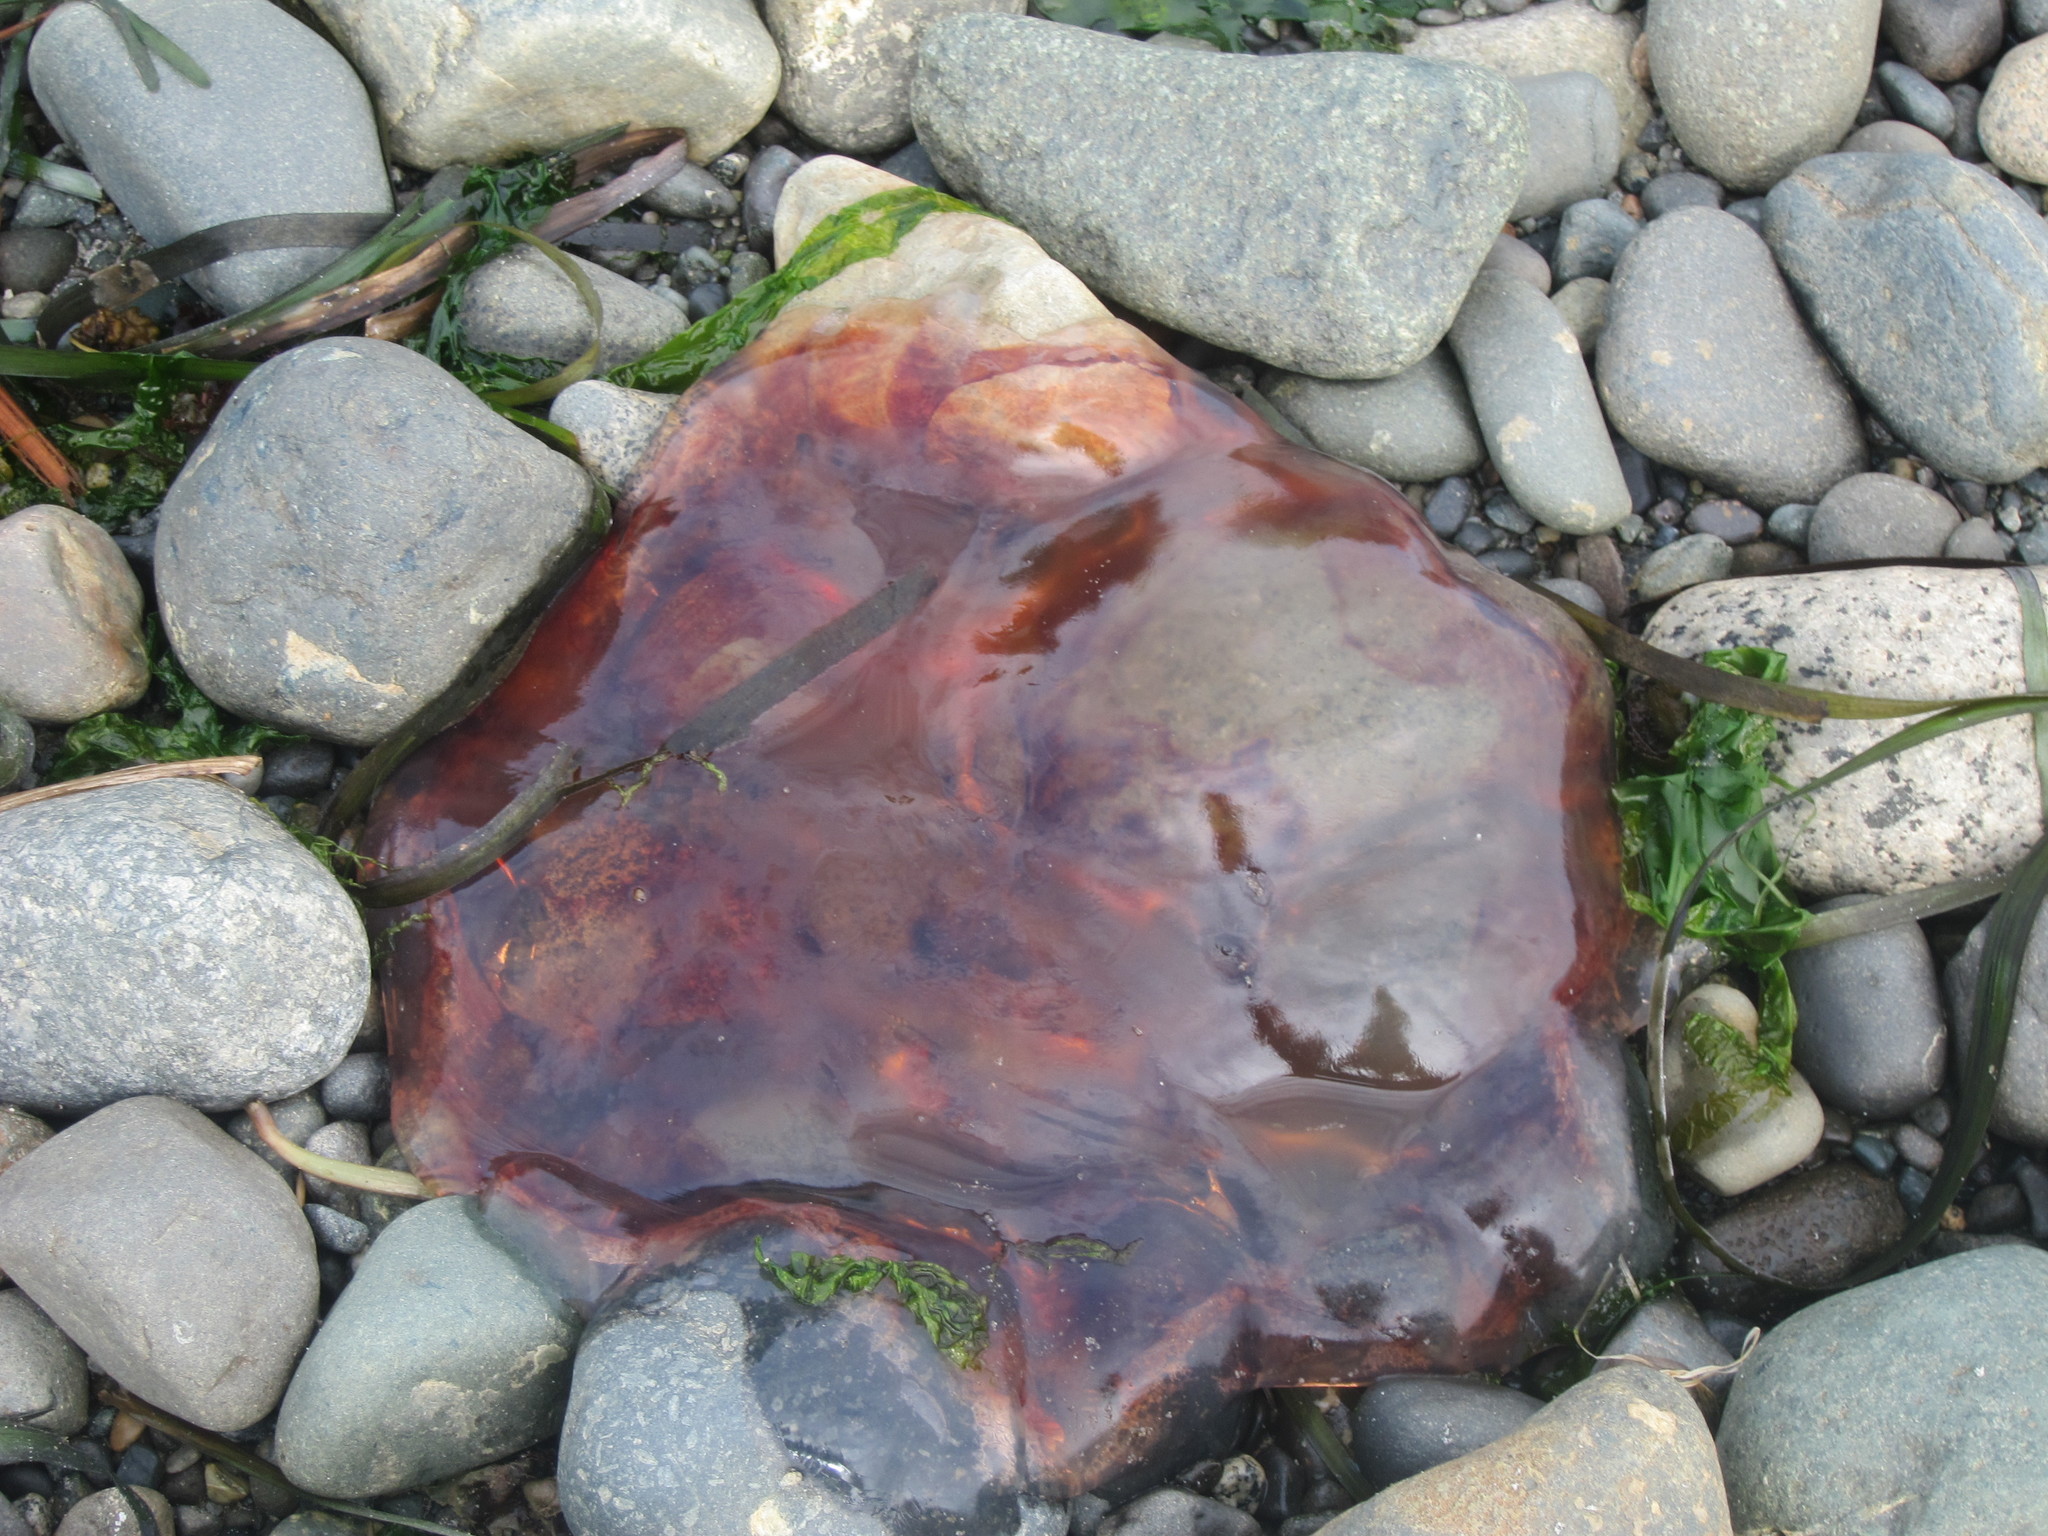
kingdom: Animalia
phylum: Cnidaria
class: Scyphozoa
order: Semaeostomeae
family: Cyaneidae
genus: Cyanea
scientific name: Cyanea ferruginea
